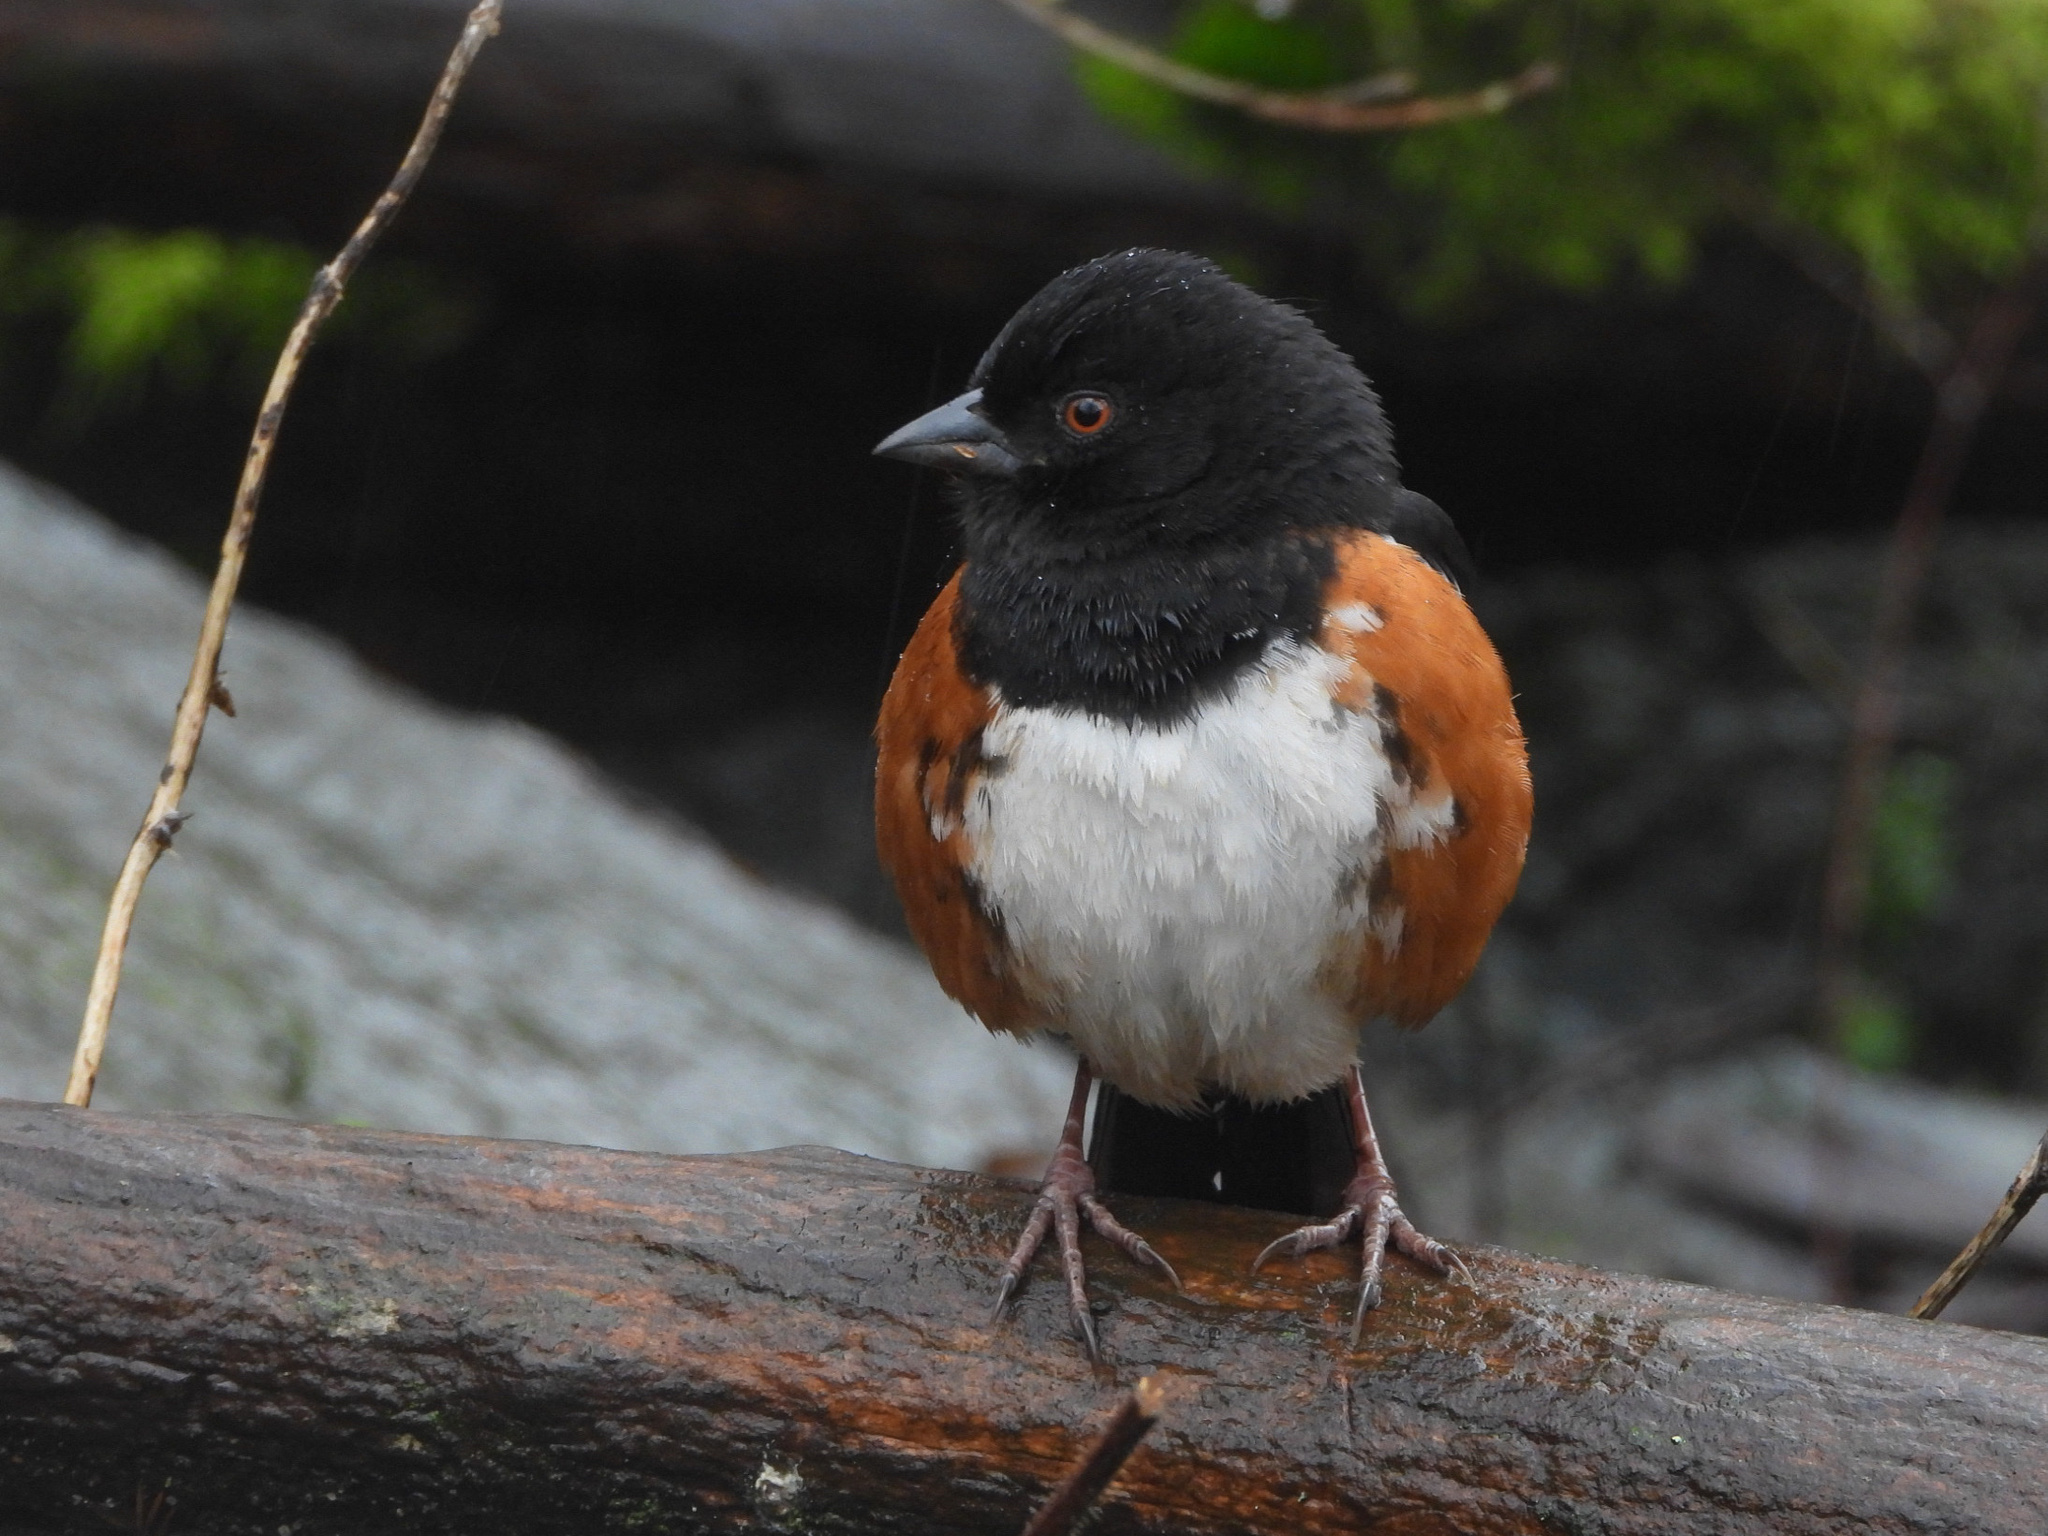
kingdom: Animalia
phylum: Chordata
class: Aves
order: Passeriformes
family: Passerellidae
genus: Pipilo
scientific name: Pipilo maculatus
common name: Spotted towhee
